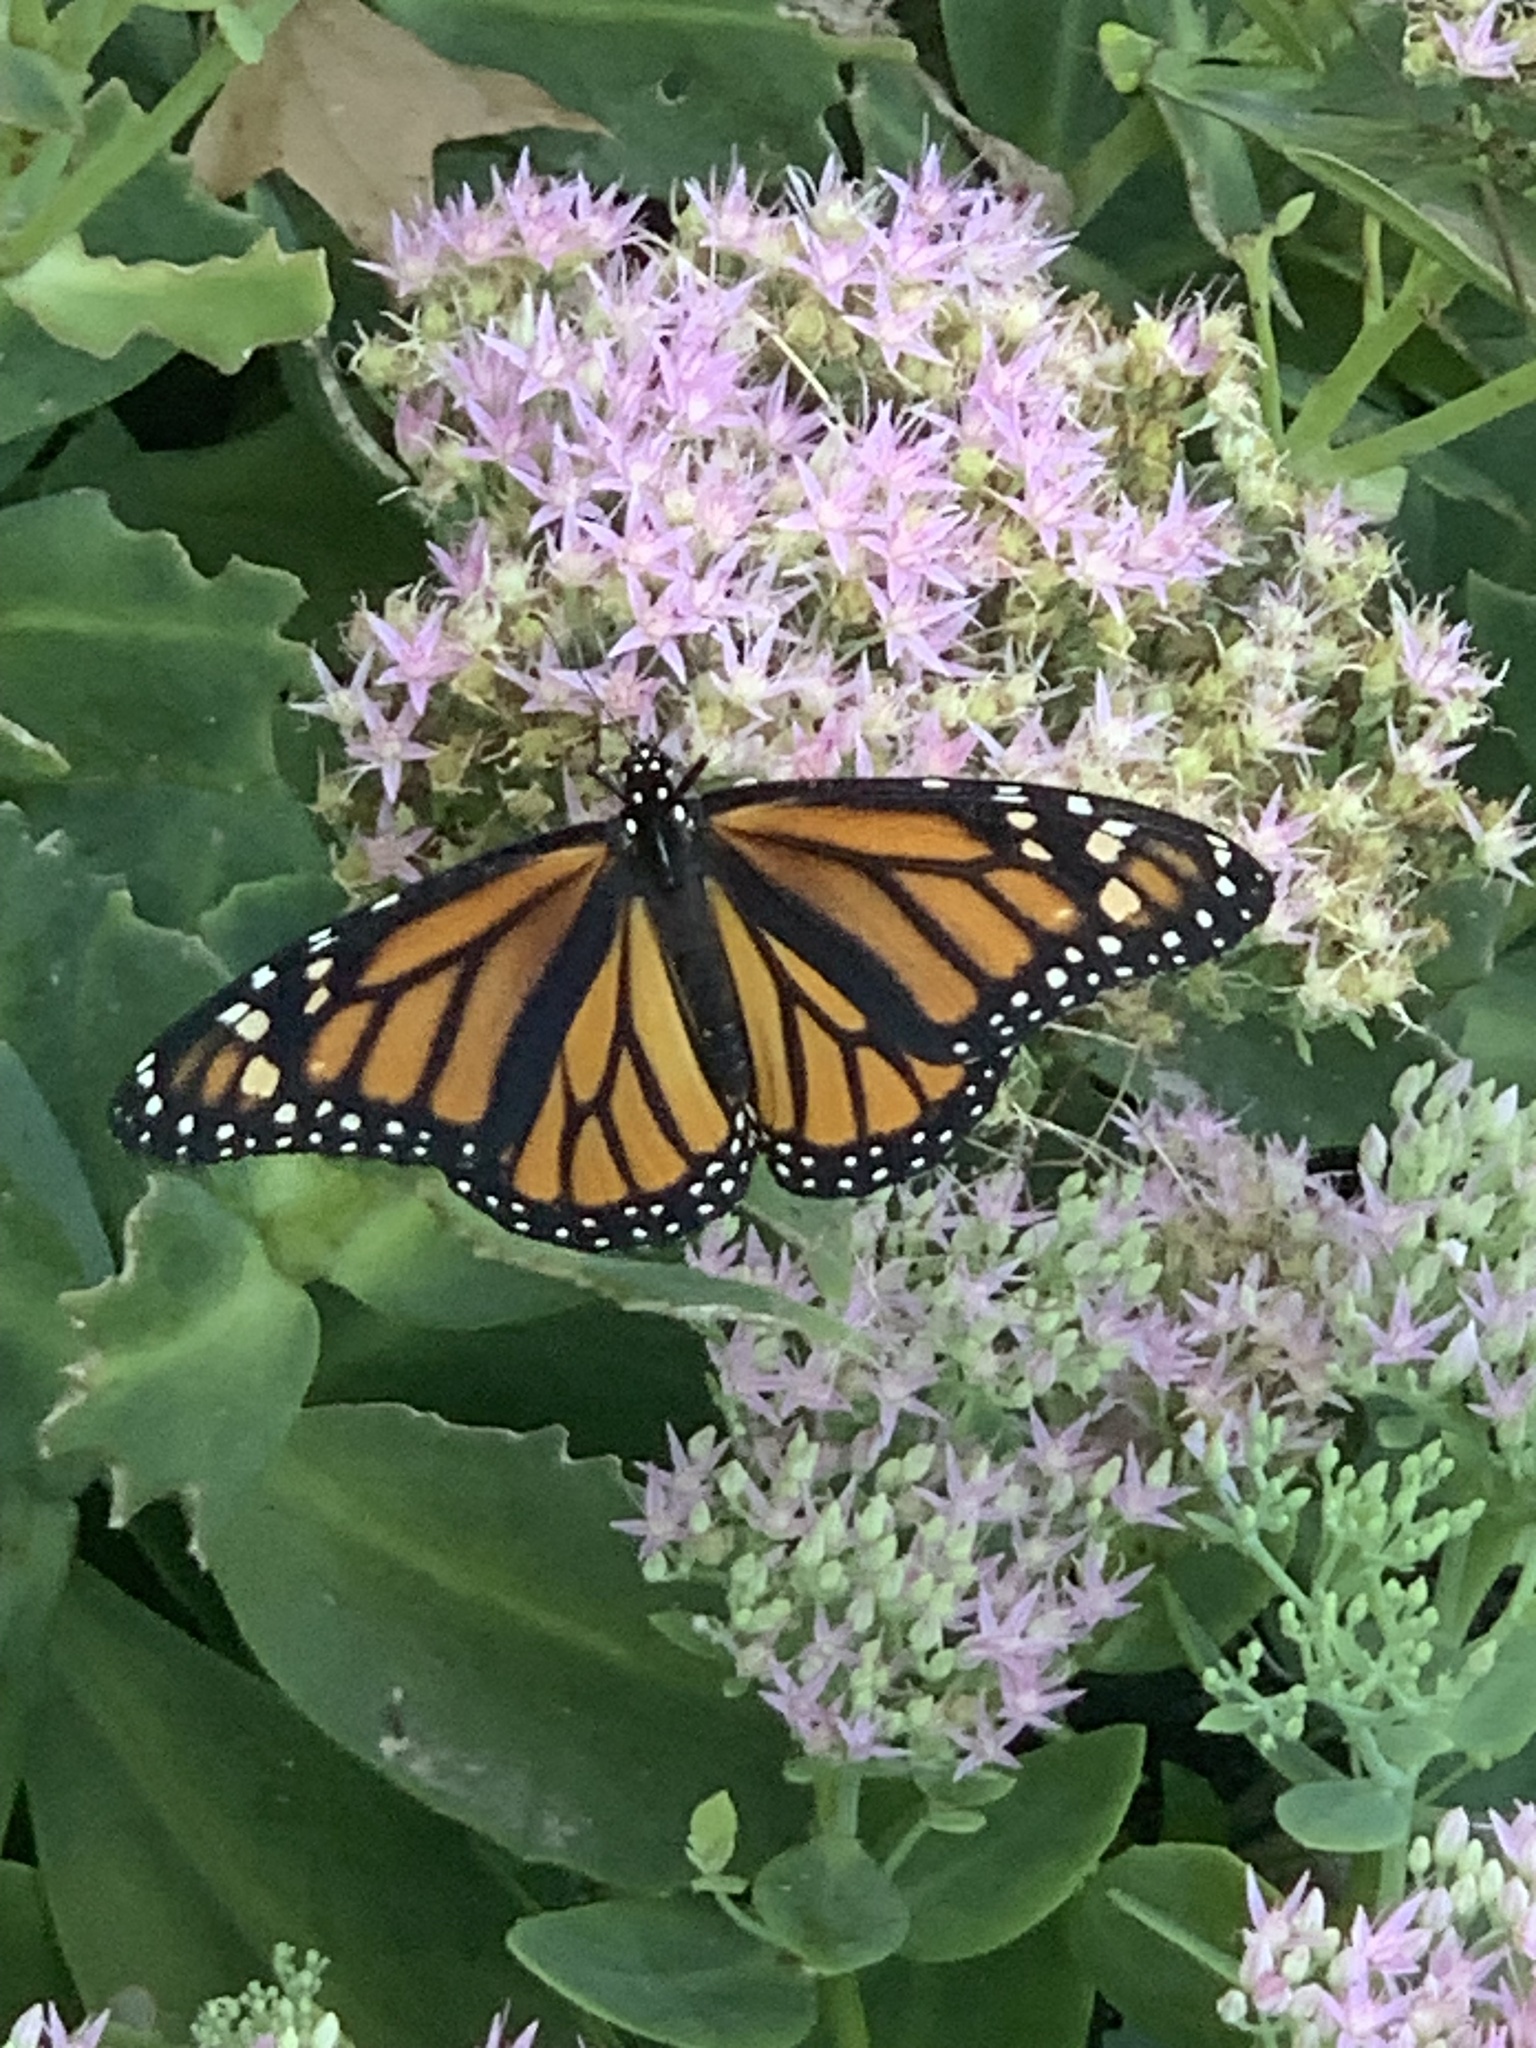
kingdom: Animalia
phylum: Arthropoda
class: Insecta
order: Lepidoptera
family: Nymphalidae
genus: Danaus
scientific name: Danaus plexippus
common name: Monarch
